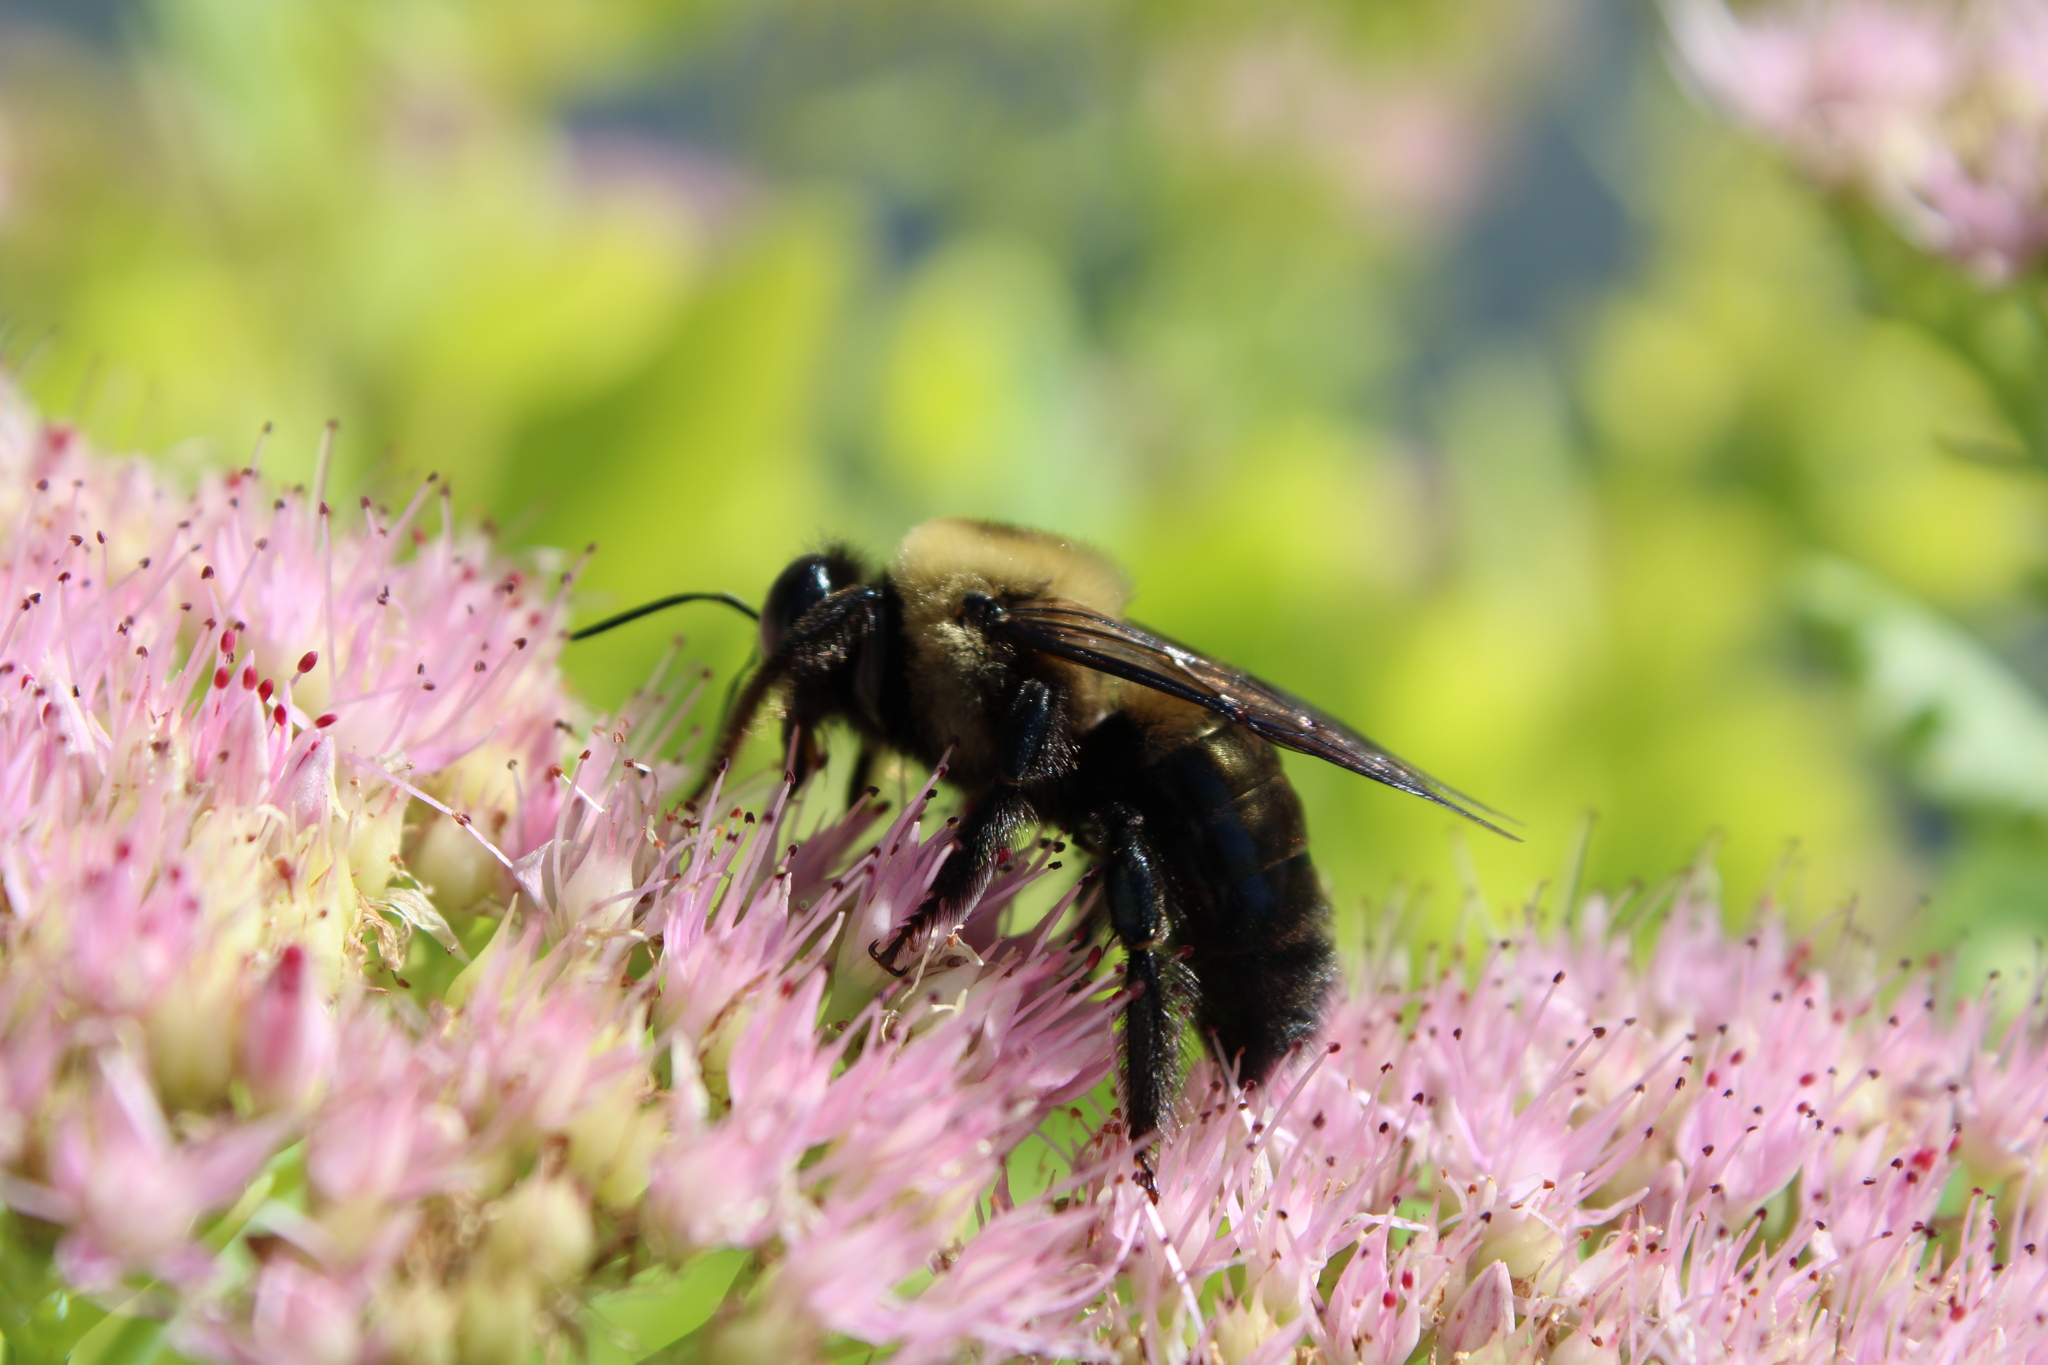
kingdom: Animalia
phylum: Arthropoda
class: Insecta
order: Hymenoptera
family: Apidae
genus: Xylocopa
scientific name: Xylocopa virginica
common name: Carpenter bee
